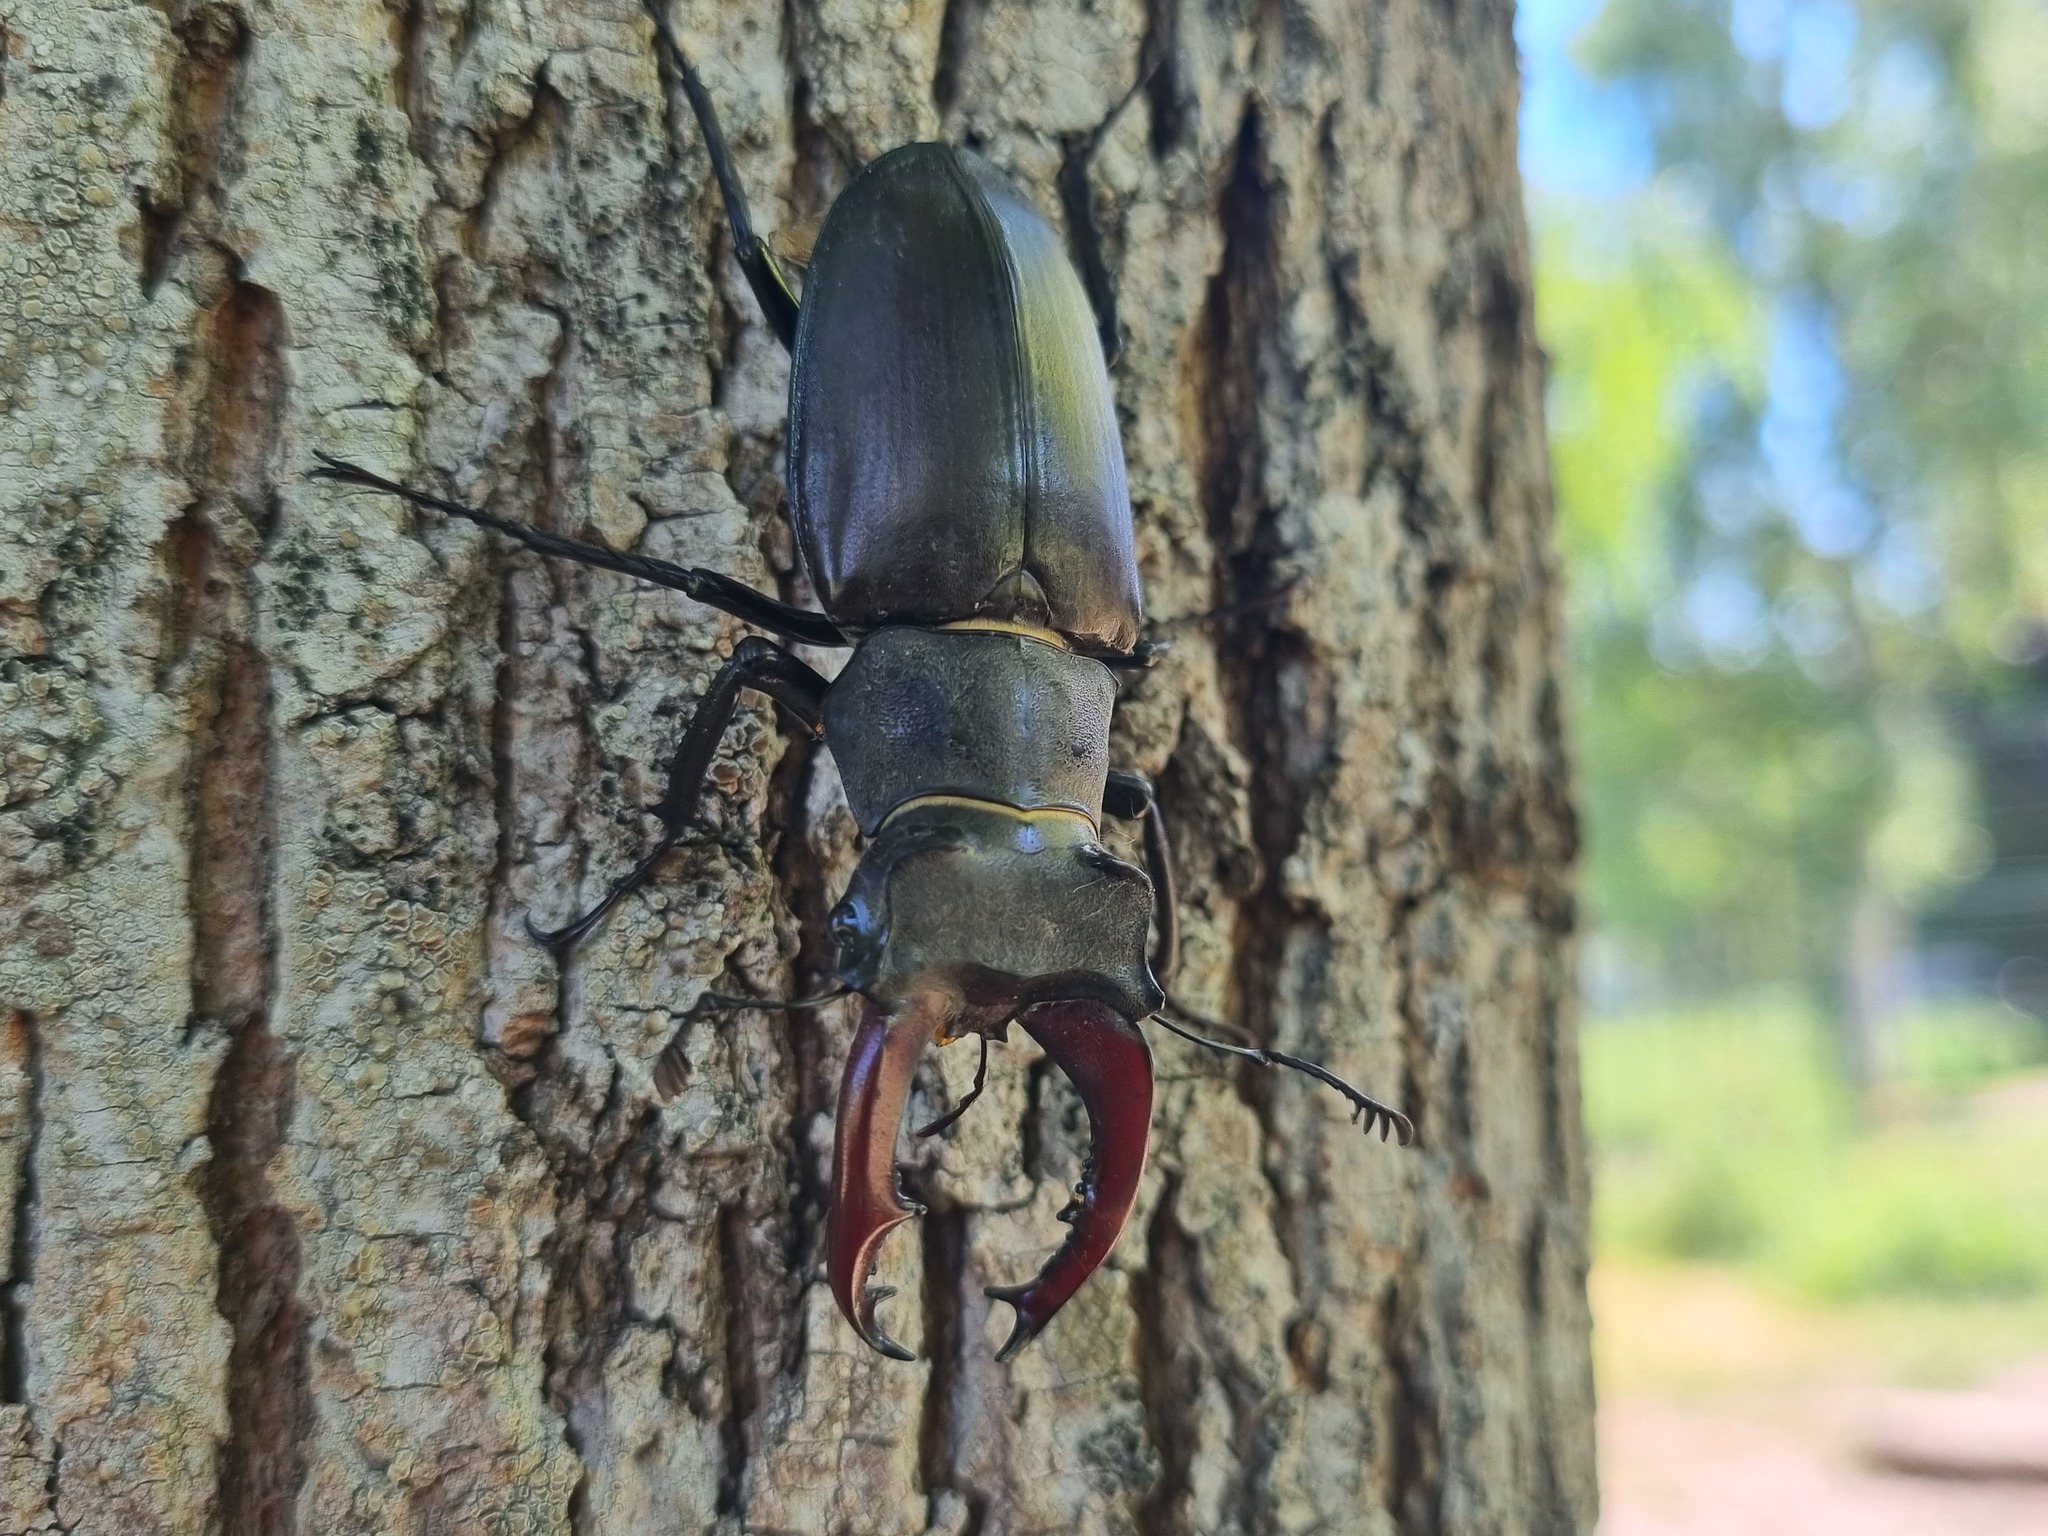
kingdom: Animalia
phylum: Arthropoda
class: Insecta
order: Coleoptera
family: Lucanidae
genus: Lucanus
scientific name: Lucanus cervus
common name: Stag beetle
